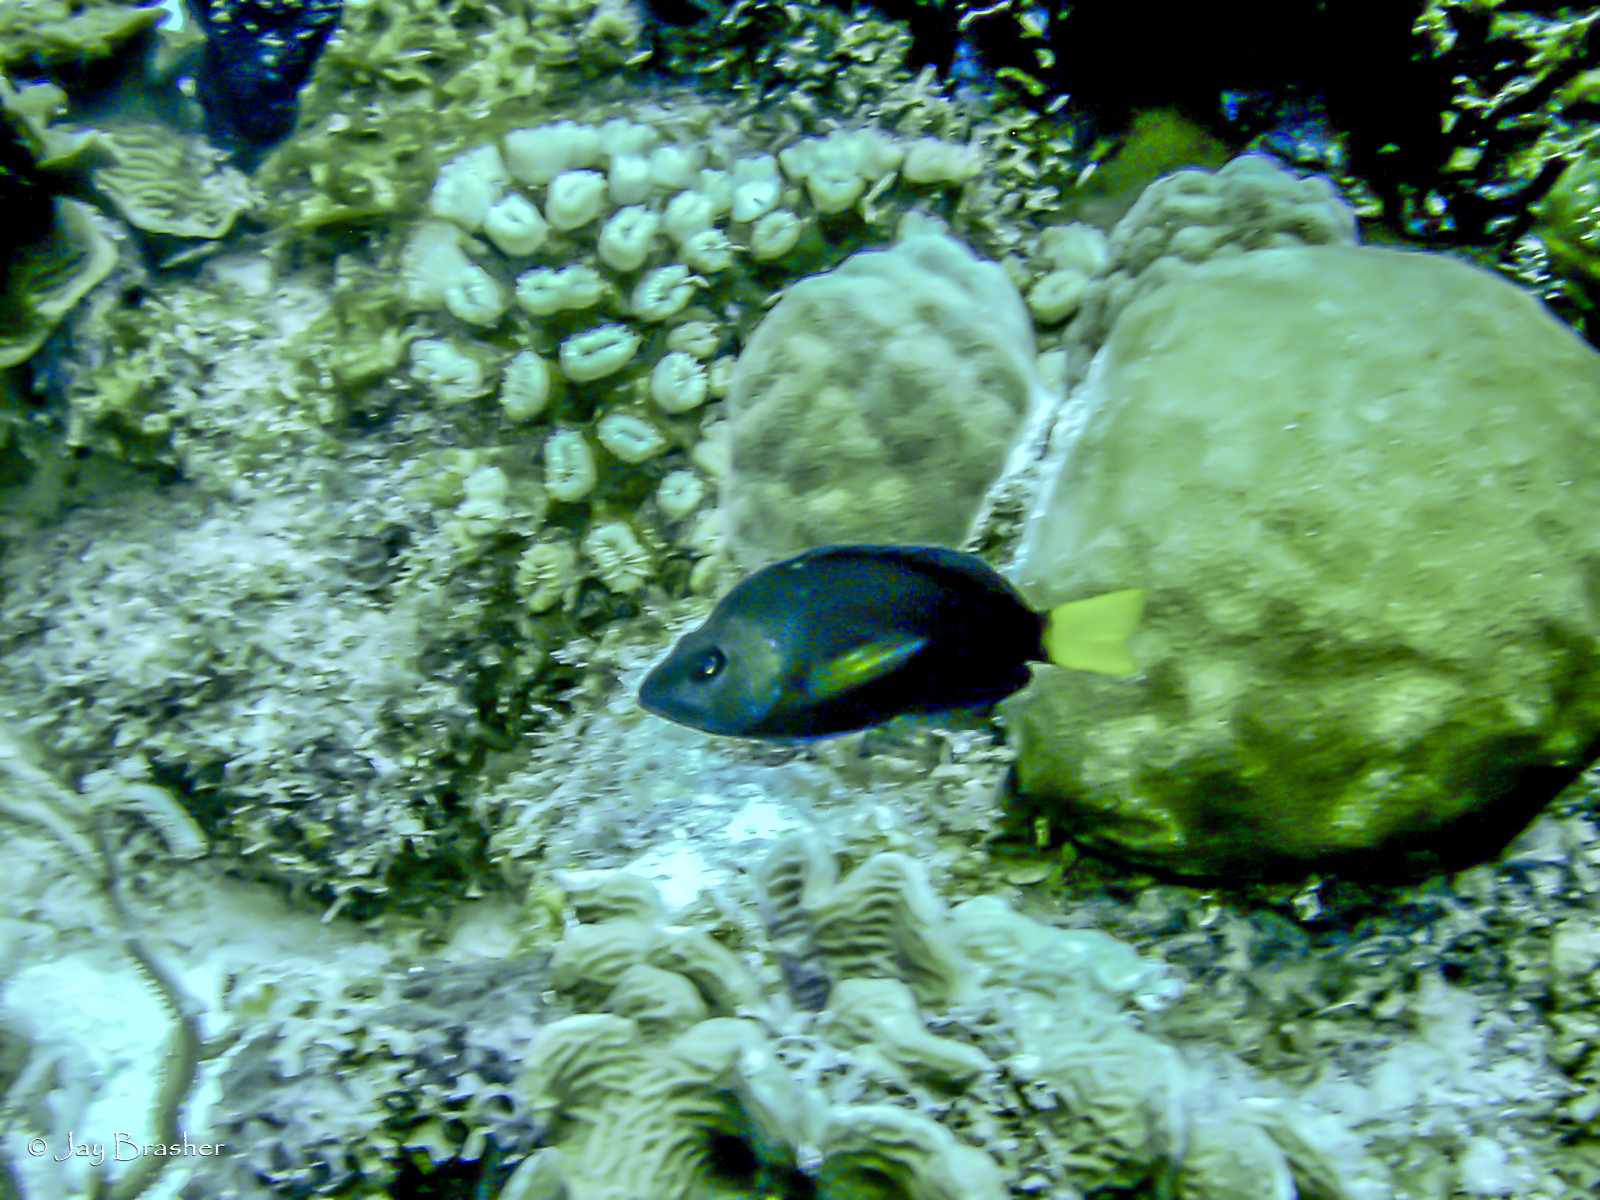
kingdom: Animalia
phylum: Chordata
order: Perciformes
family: Serranidae
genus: Hypoplectrus
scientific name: Hypoplectrus chlorurus
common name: Yellowtail hamlet
